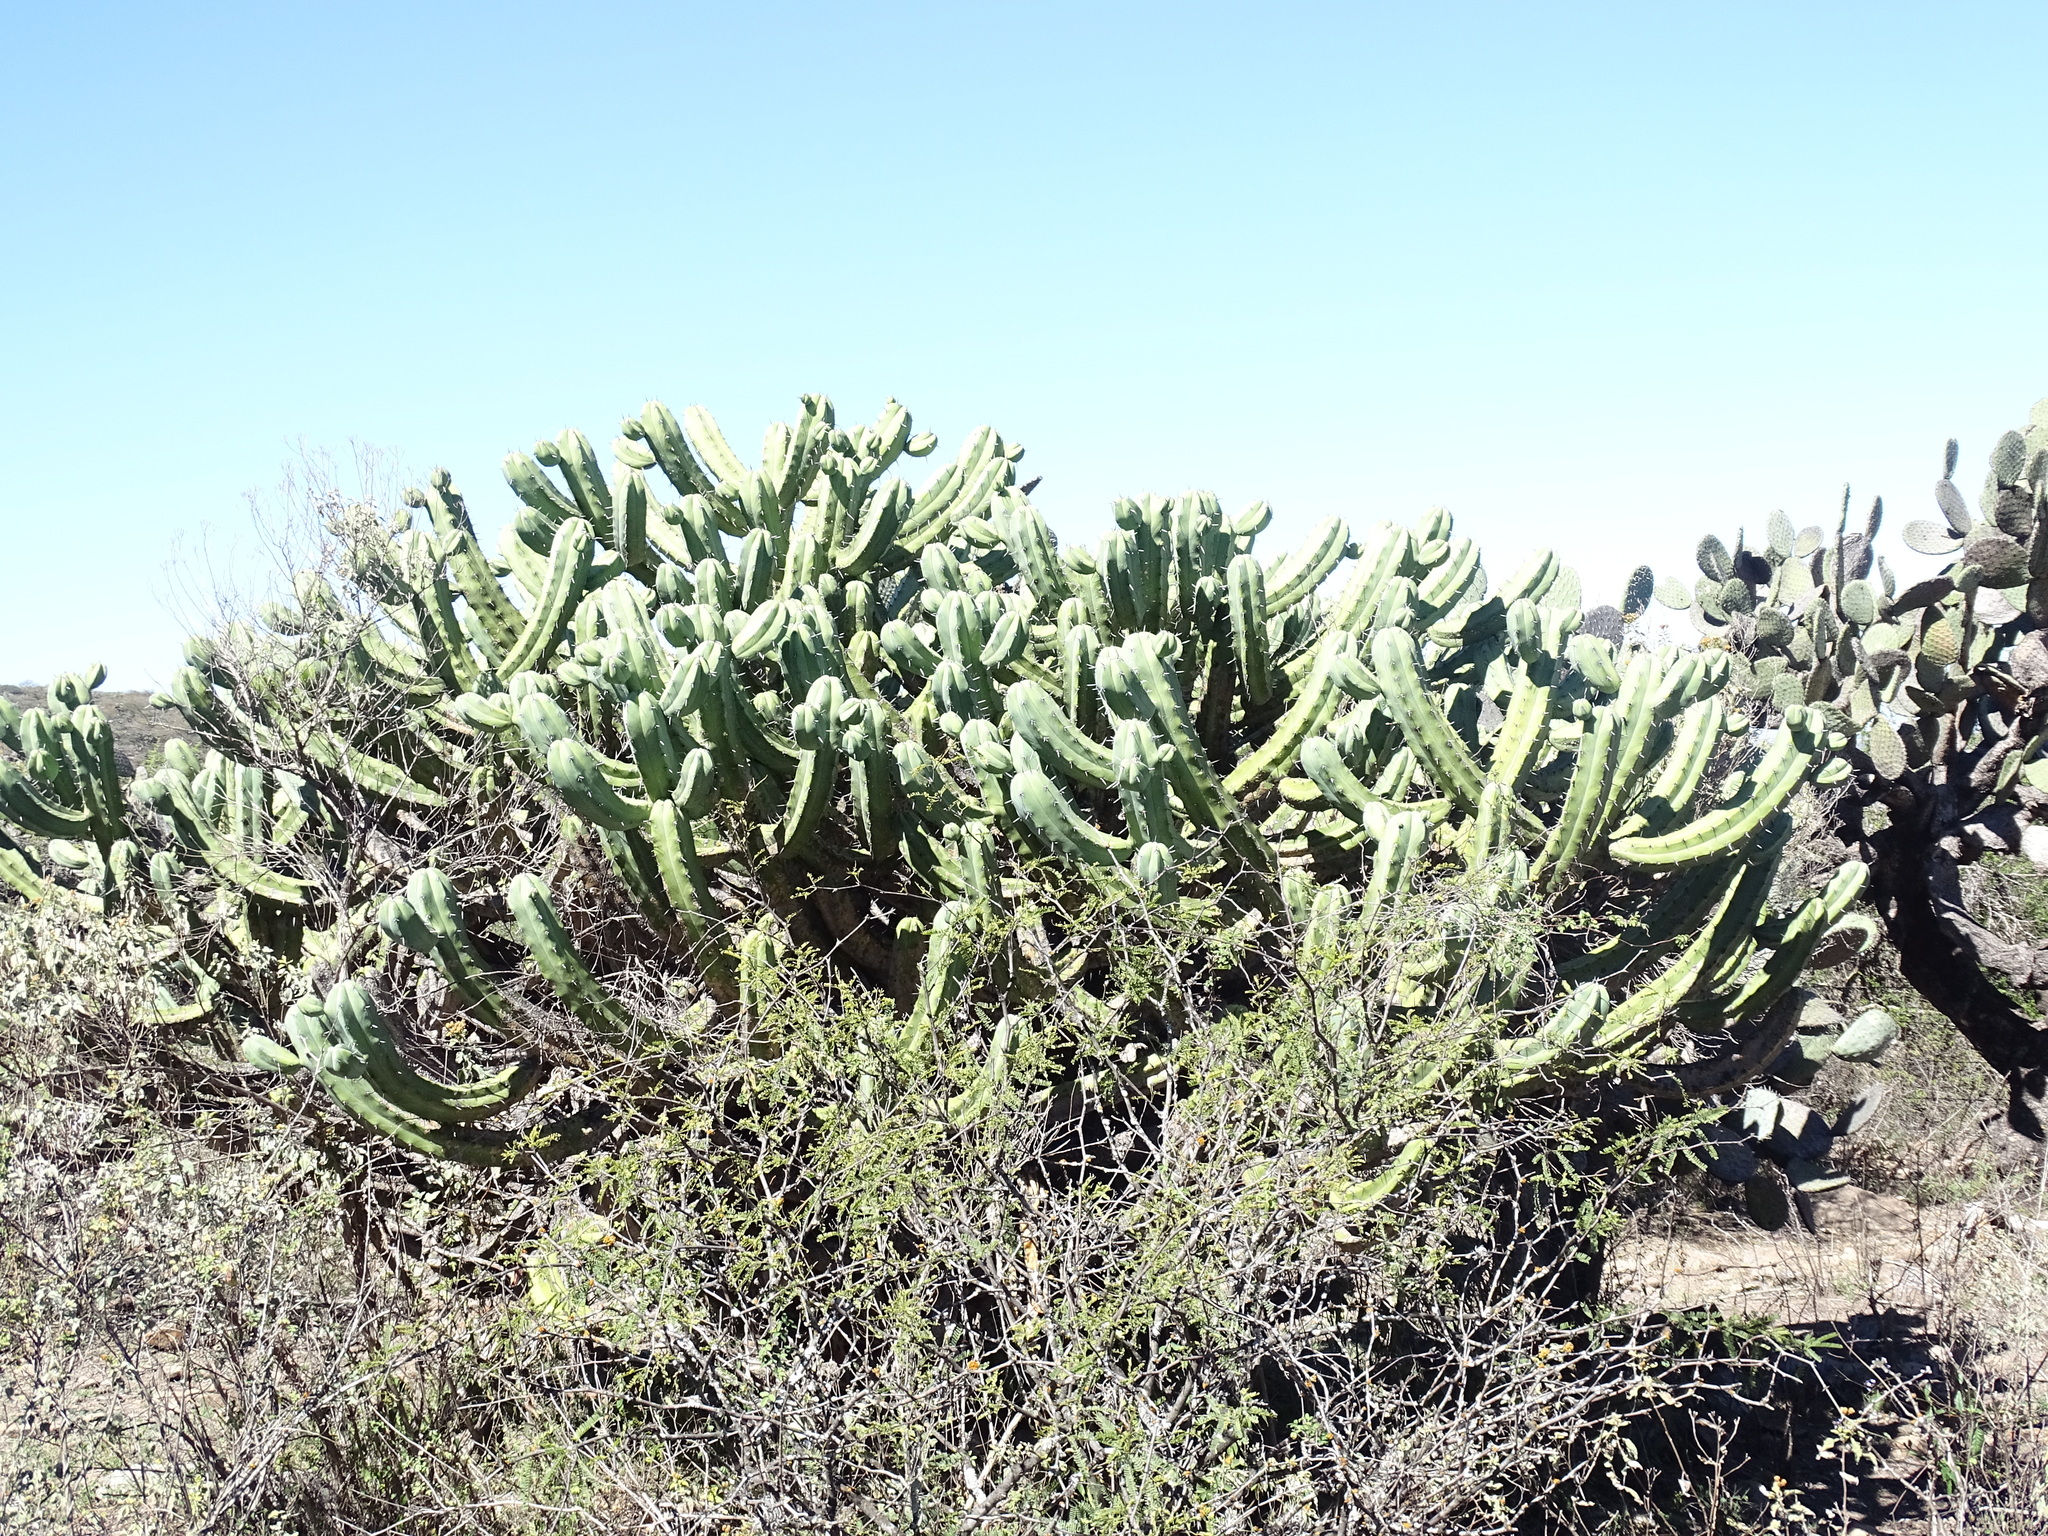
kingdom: Plantae
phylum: Tracheophyta
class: Magnoliopsida
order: Caryophyllales
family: Cactaceae
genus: Myrtillocactus
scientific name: Myrtillocactus geometrizans
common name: Bilberry cactus
